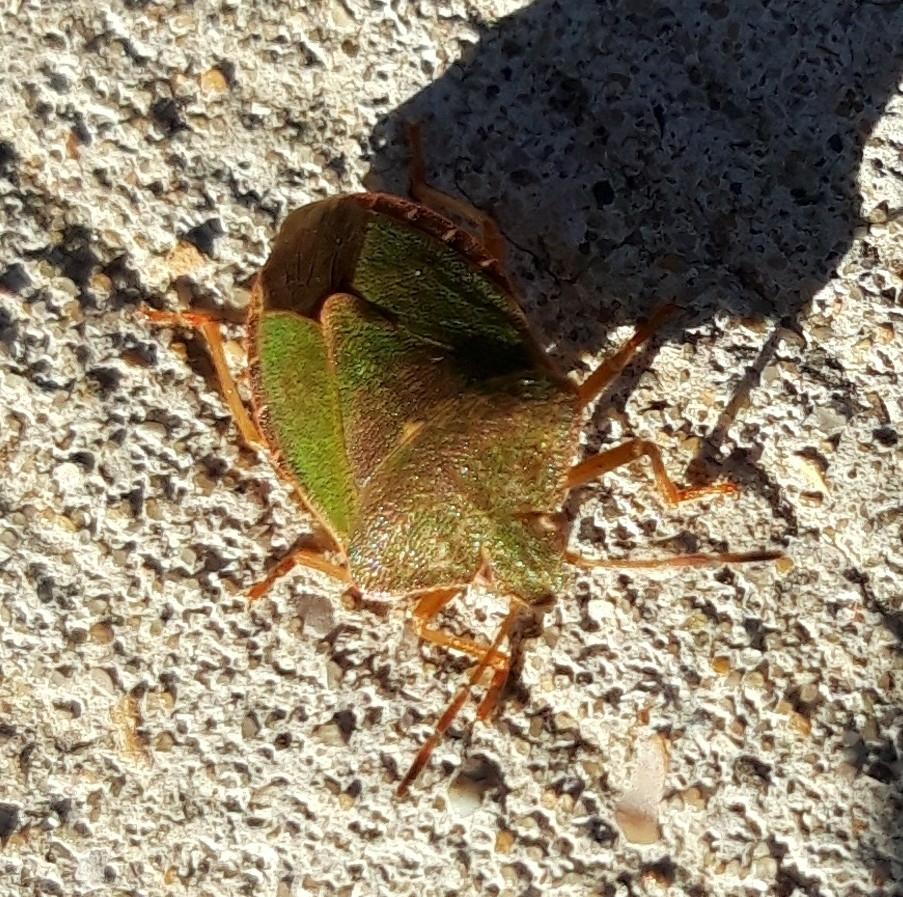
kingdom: Animalia
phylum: Arthropoda
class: Insecta
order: Hemiptera
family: Pentatomidae
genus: Palomena
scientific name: Palomena prasina
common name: Green shieldbug
